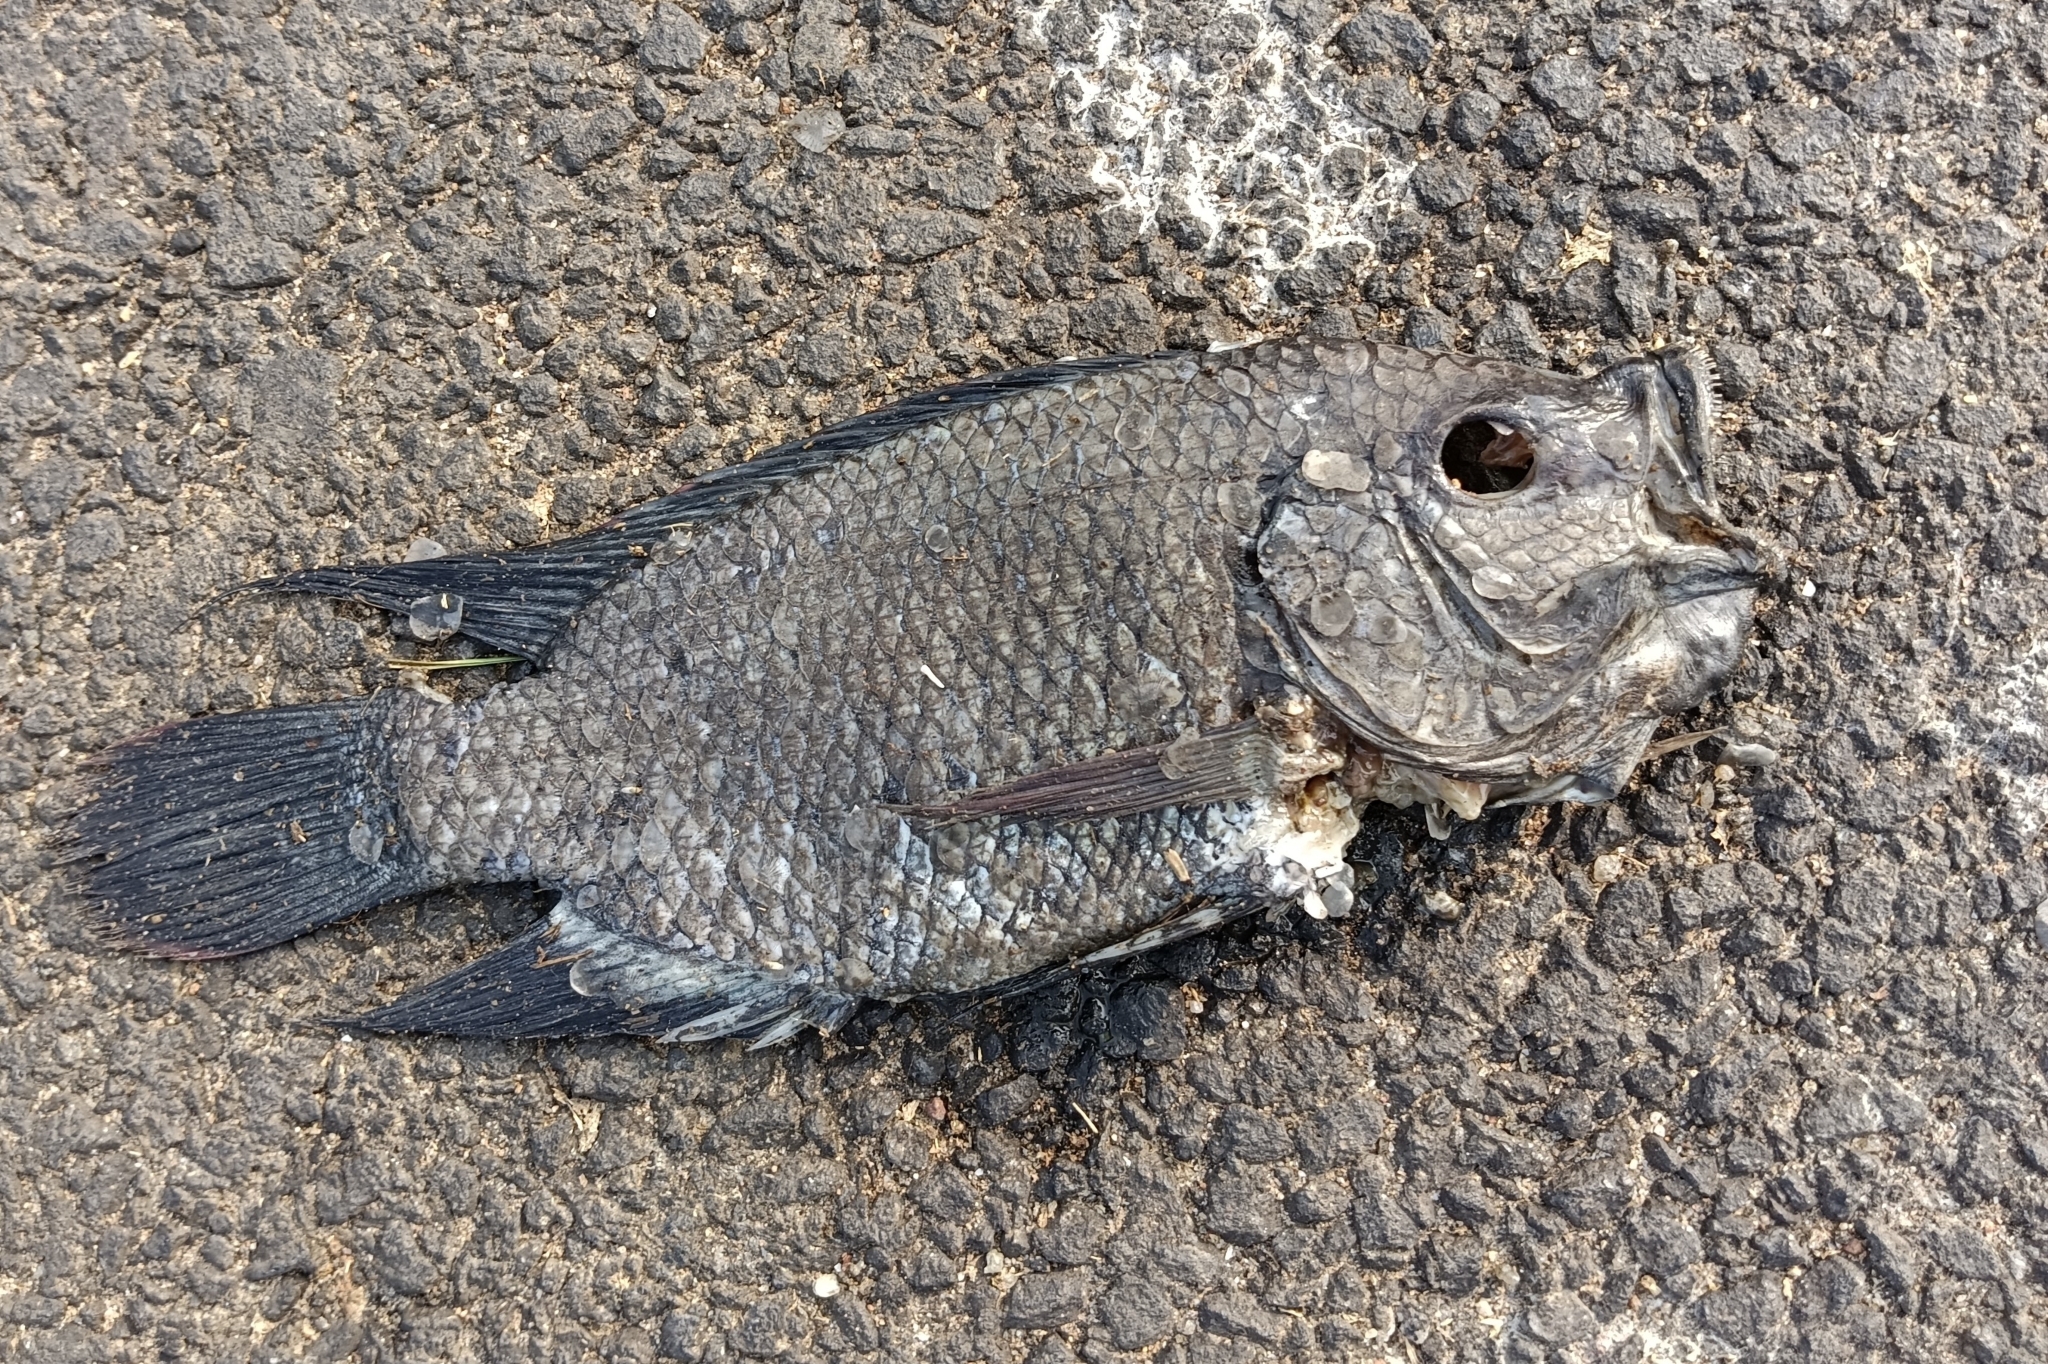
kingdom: Animalia
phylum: Chordata
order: Perciformes
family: Cichlidae
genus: Oreochromis
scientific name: Oreochromis mossambicus
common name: Mozambique tilapia
